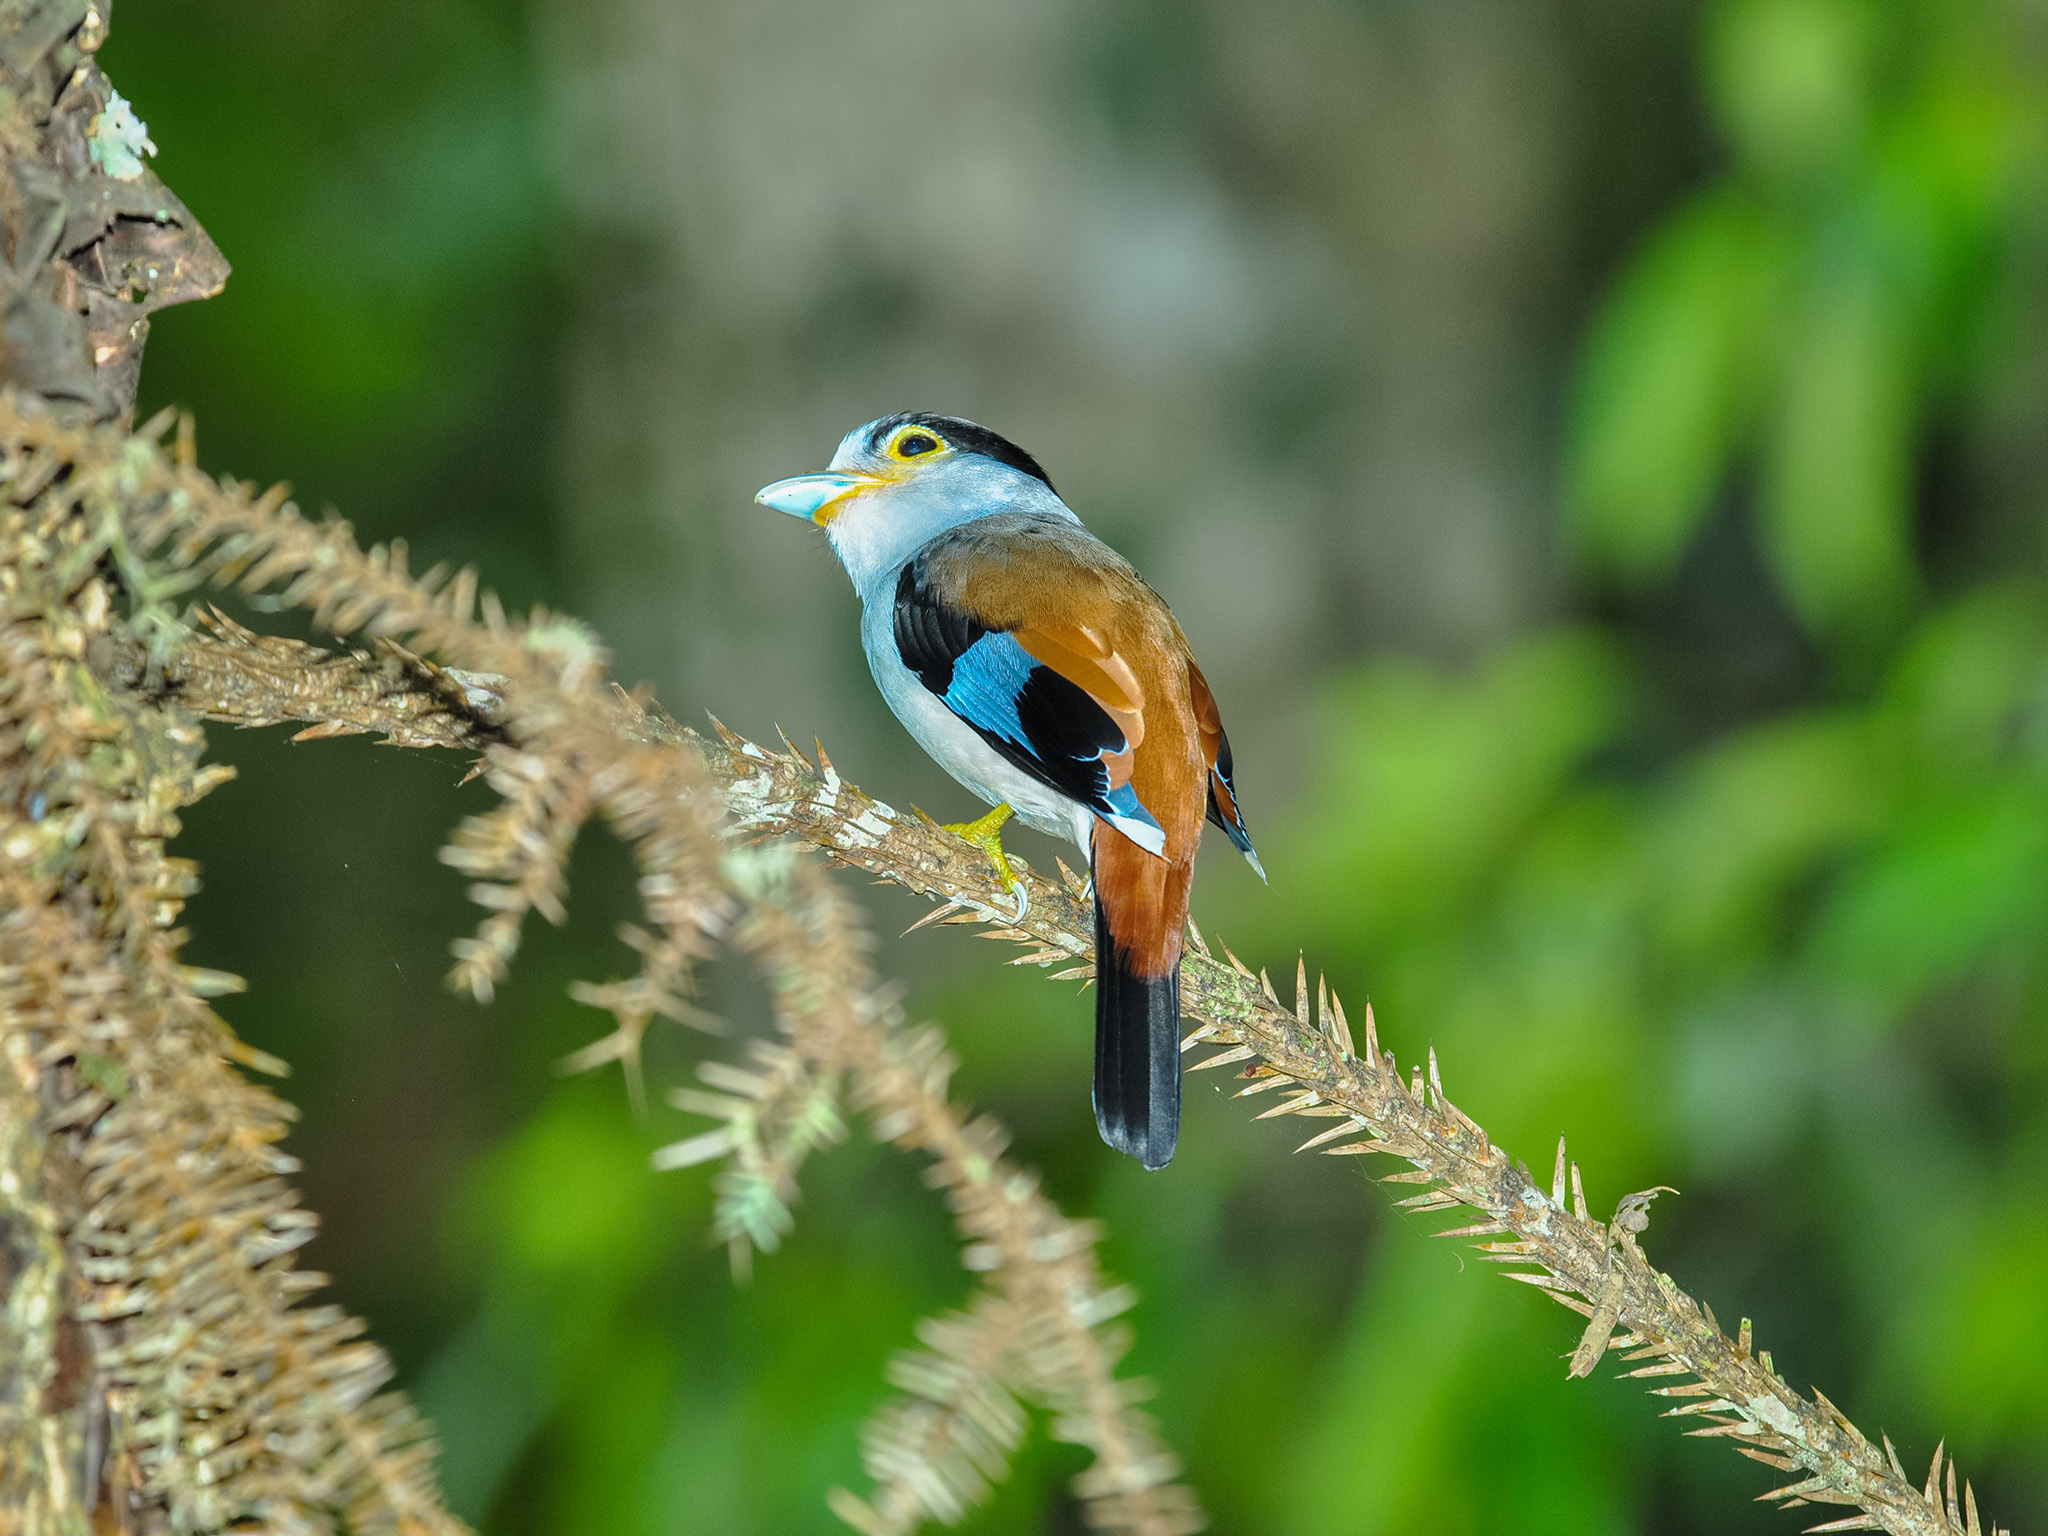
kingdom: Animalia
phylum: Chordata
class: Aves
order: Passeriformes
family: Eurylaimidae
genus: Serilophus
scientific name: Serilophus lunatus
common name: Silver-breasted broadbill
